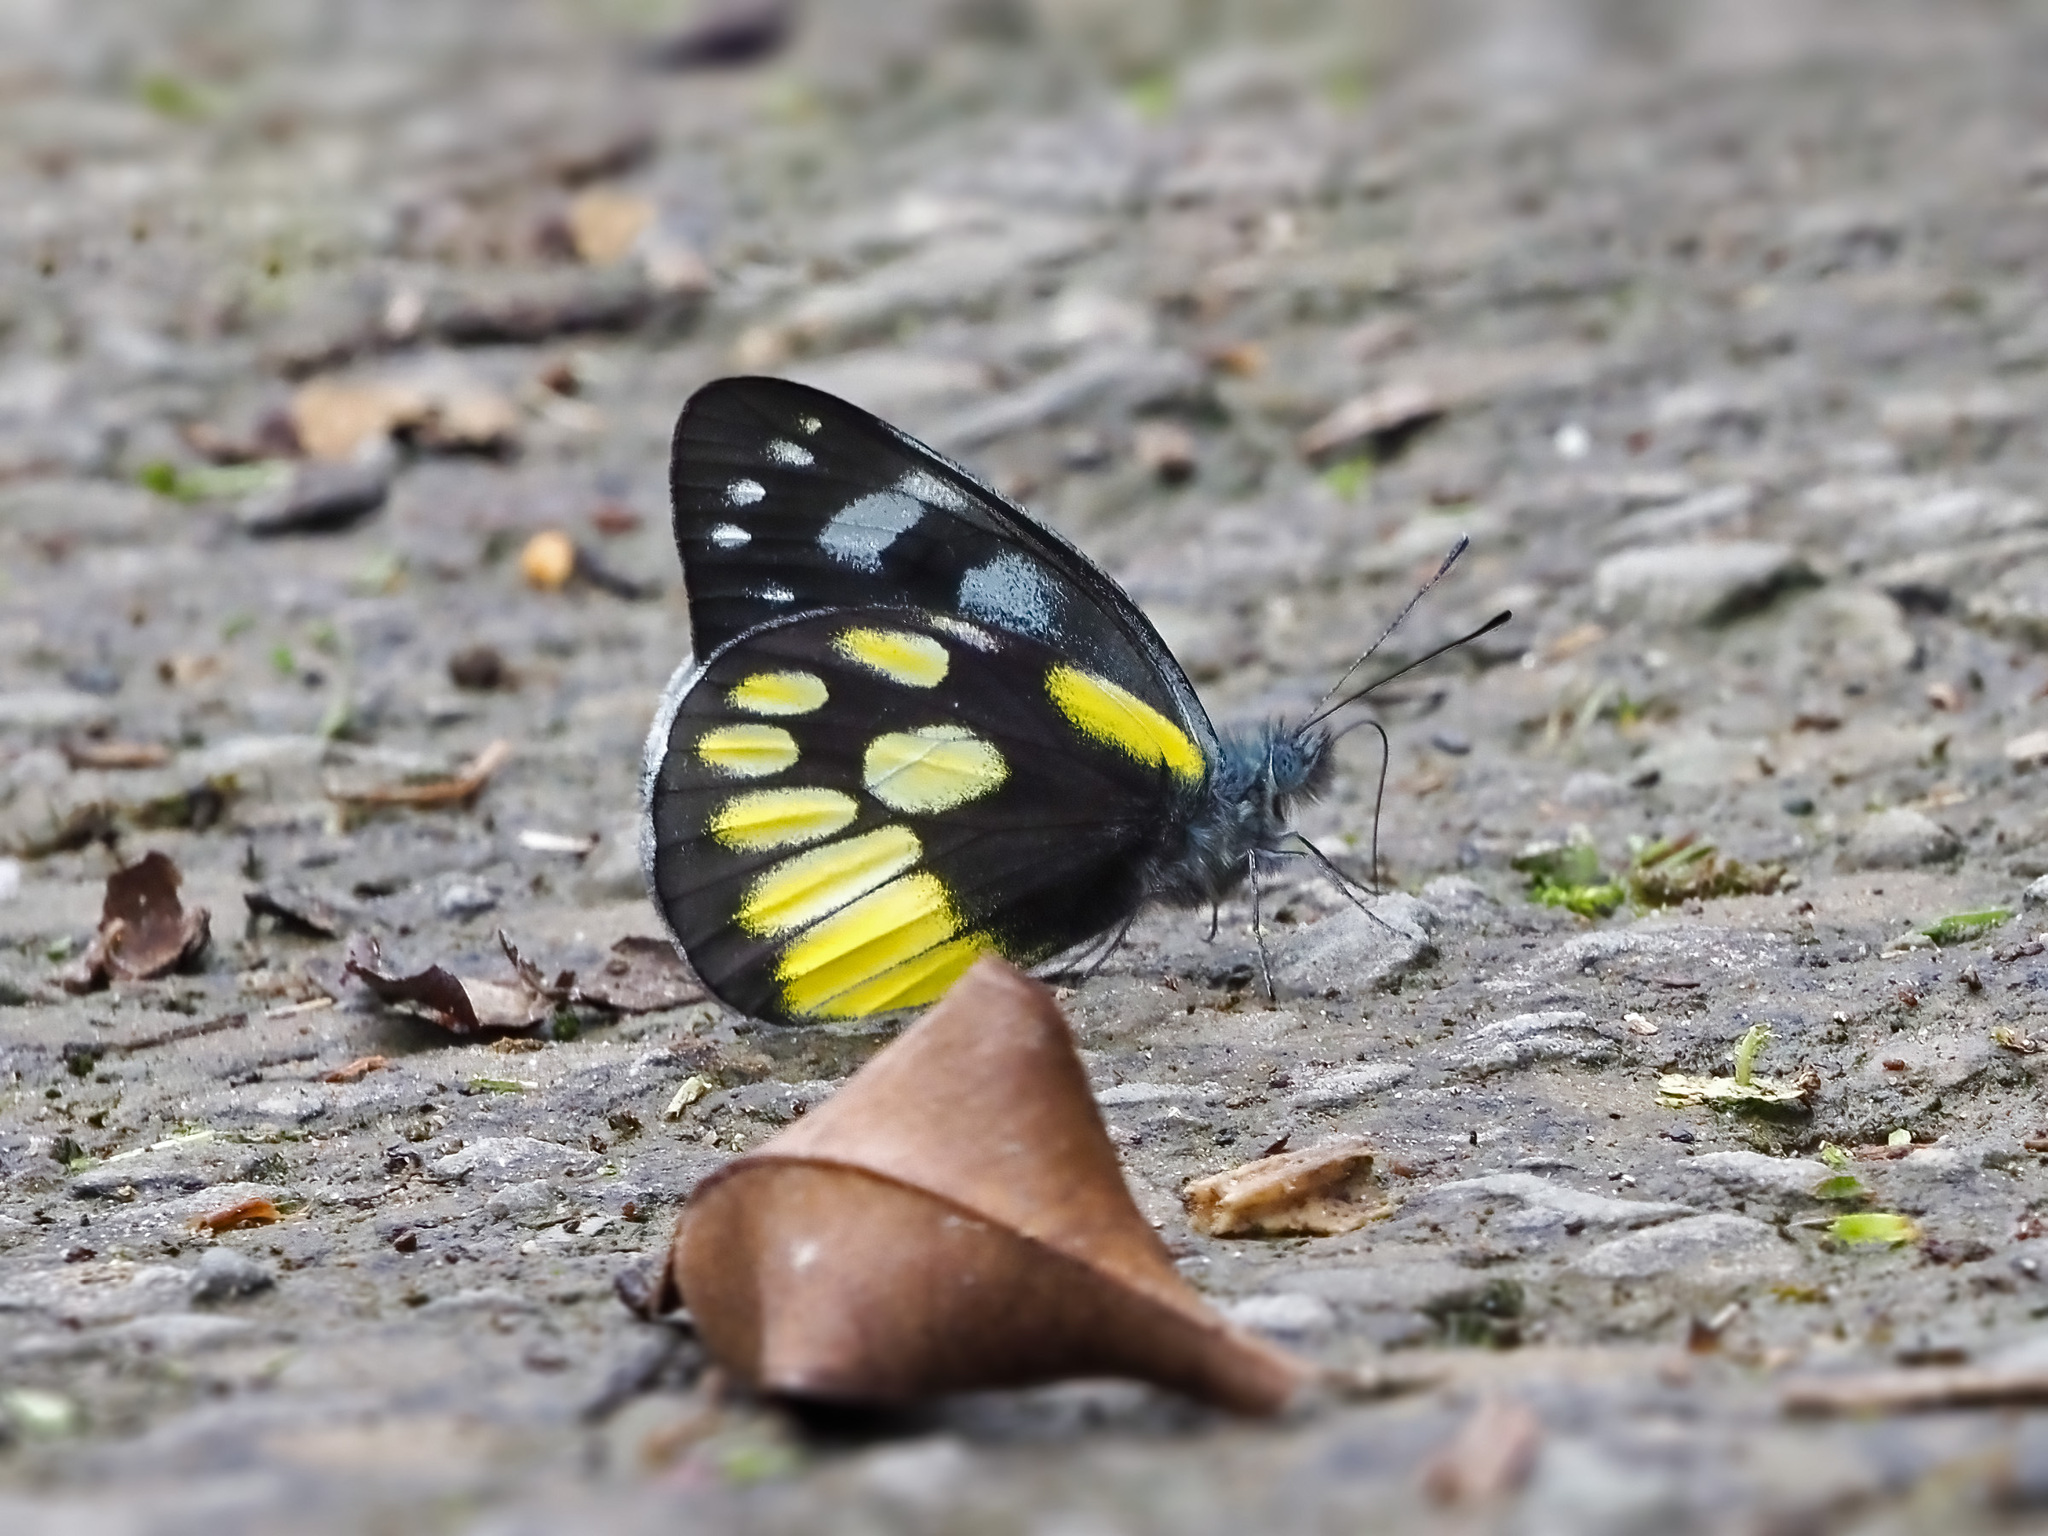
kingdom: Animalia
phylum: Arthropoda
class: Insecta
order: Lepidoptera
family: Pieridae
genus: Delias
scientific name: Delias cinerascens
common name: Kinabalu jezebel
